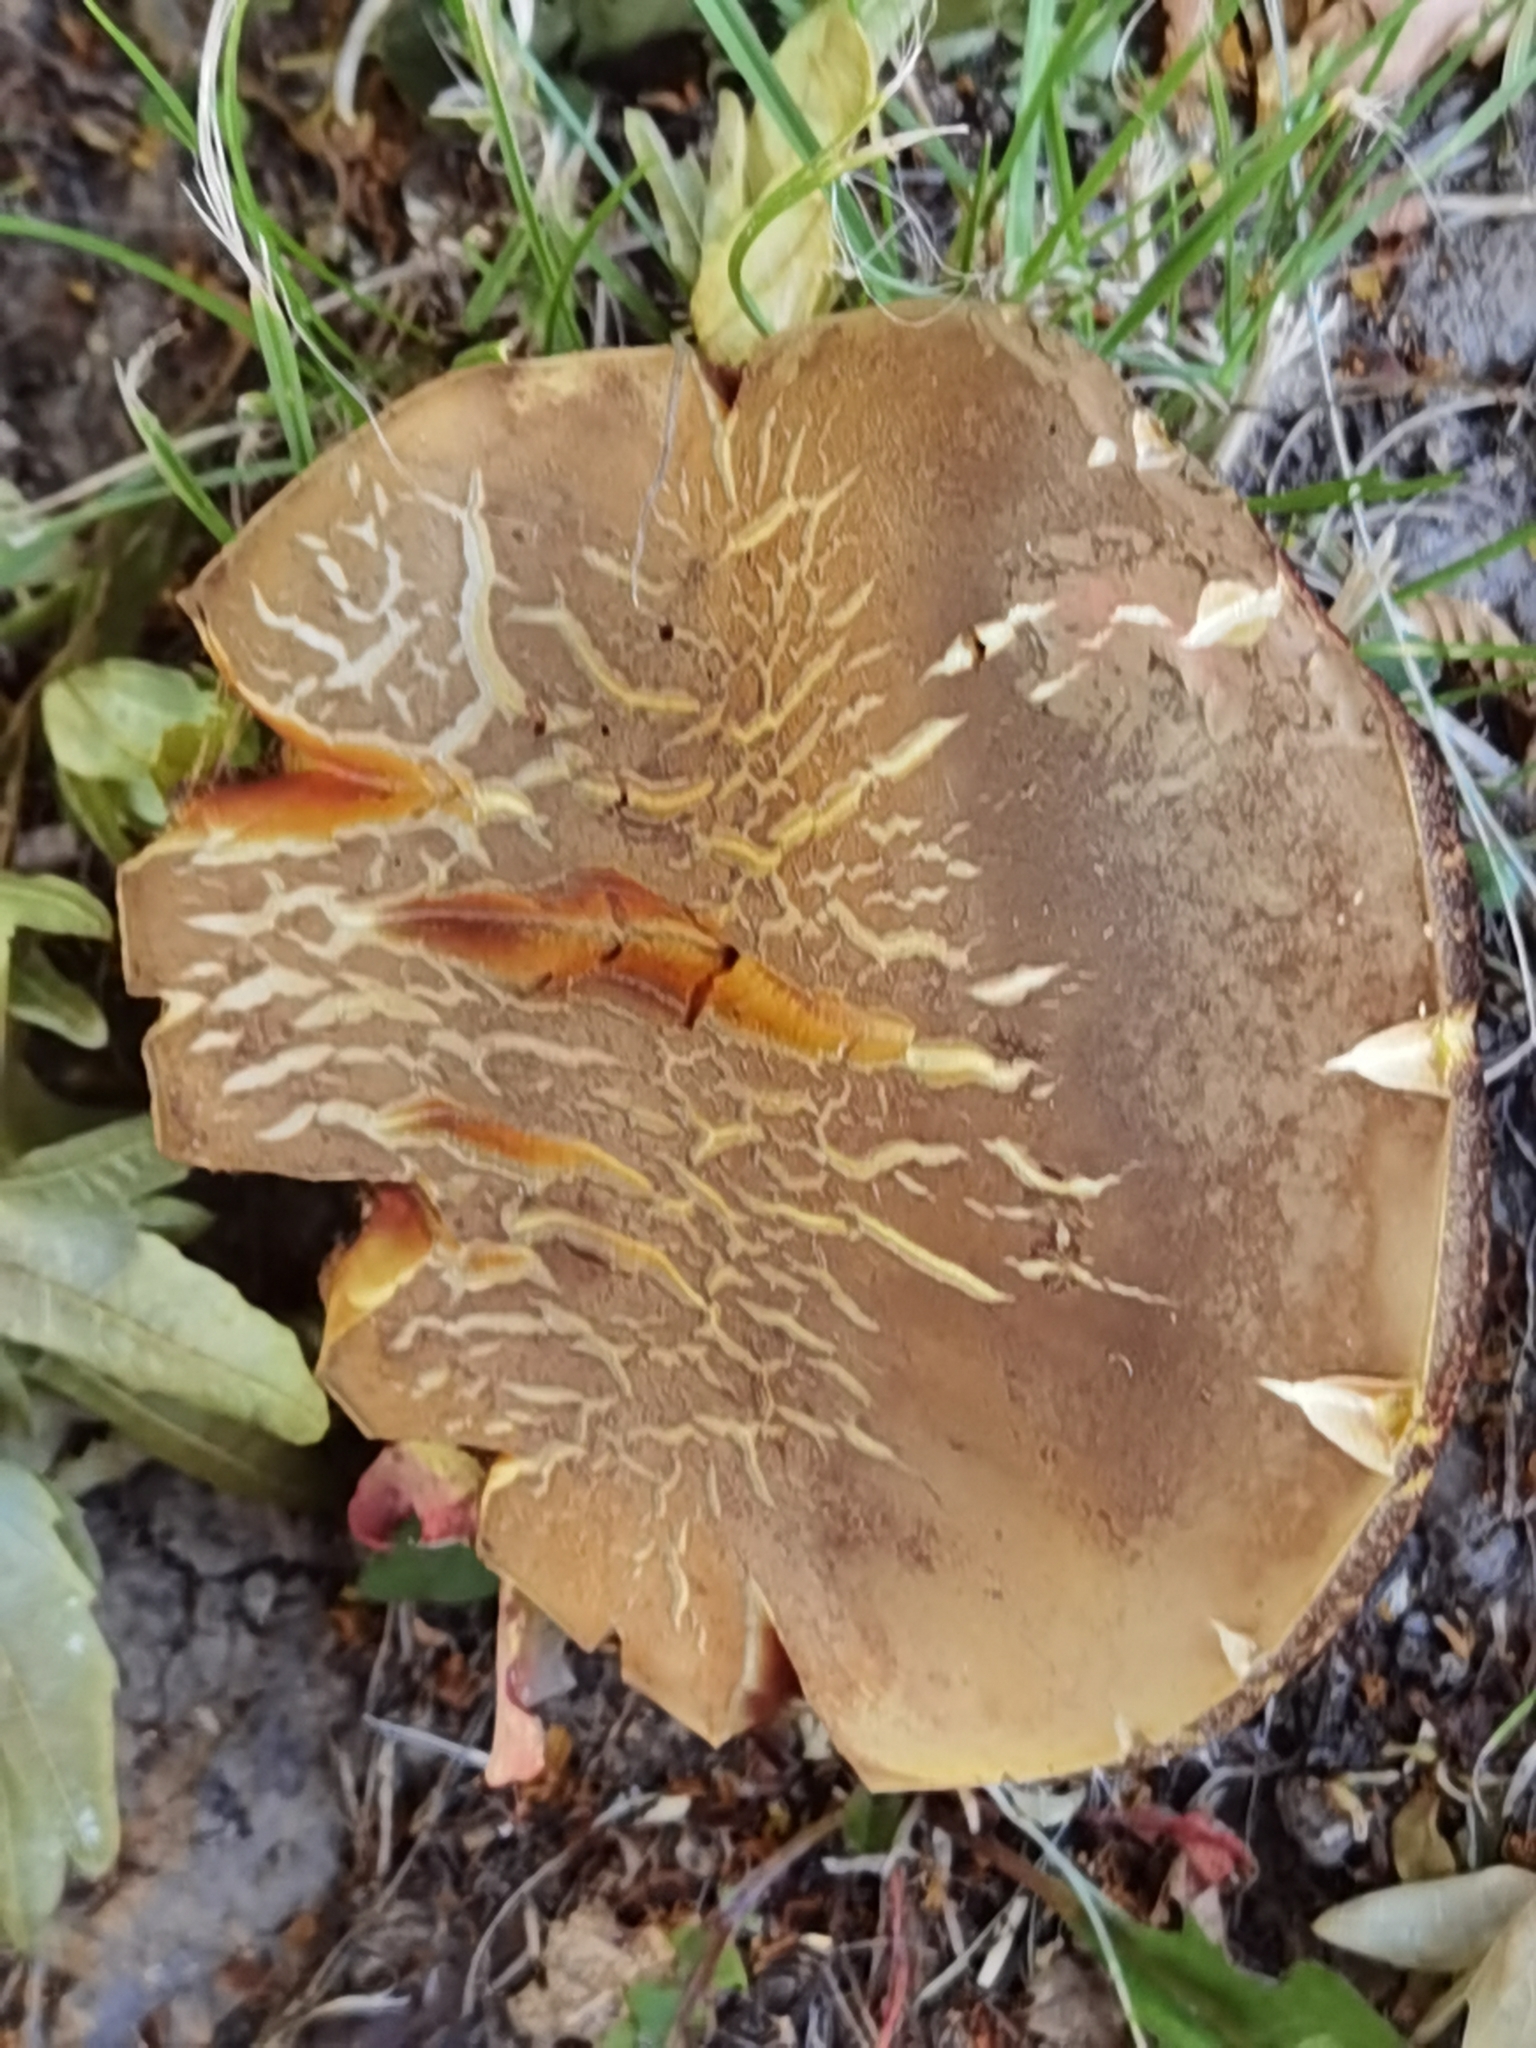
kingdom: Fungi
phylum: Basidiomycota
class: Agaricomycetes
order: Boletales
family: Boletaceae
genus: Suillellus
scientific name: Suillellus luridus
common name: Lurid bolete
